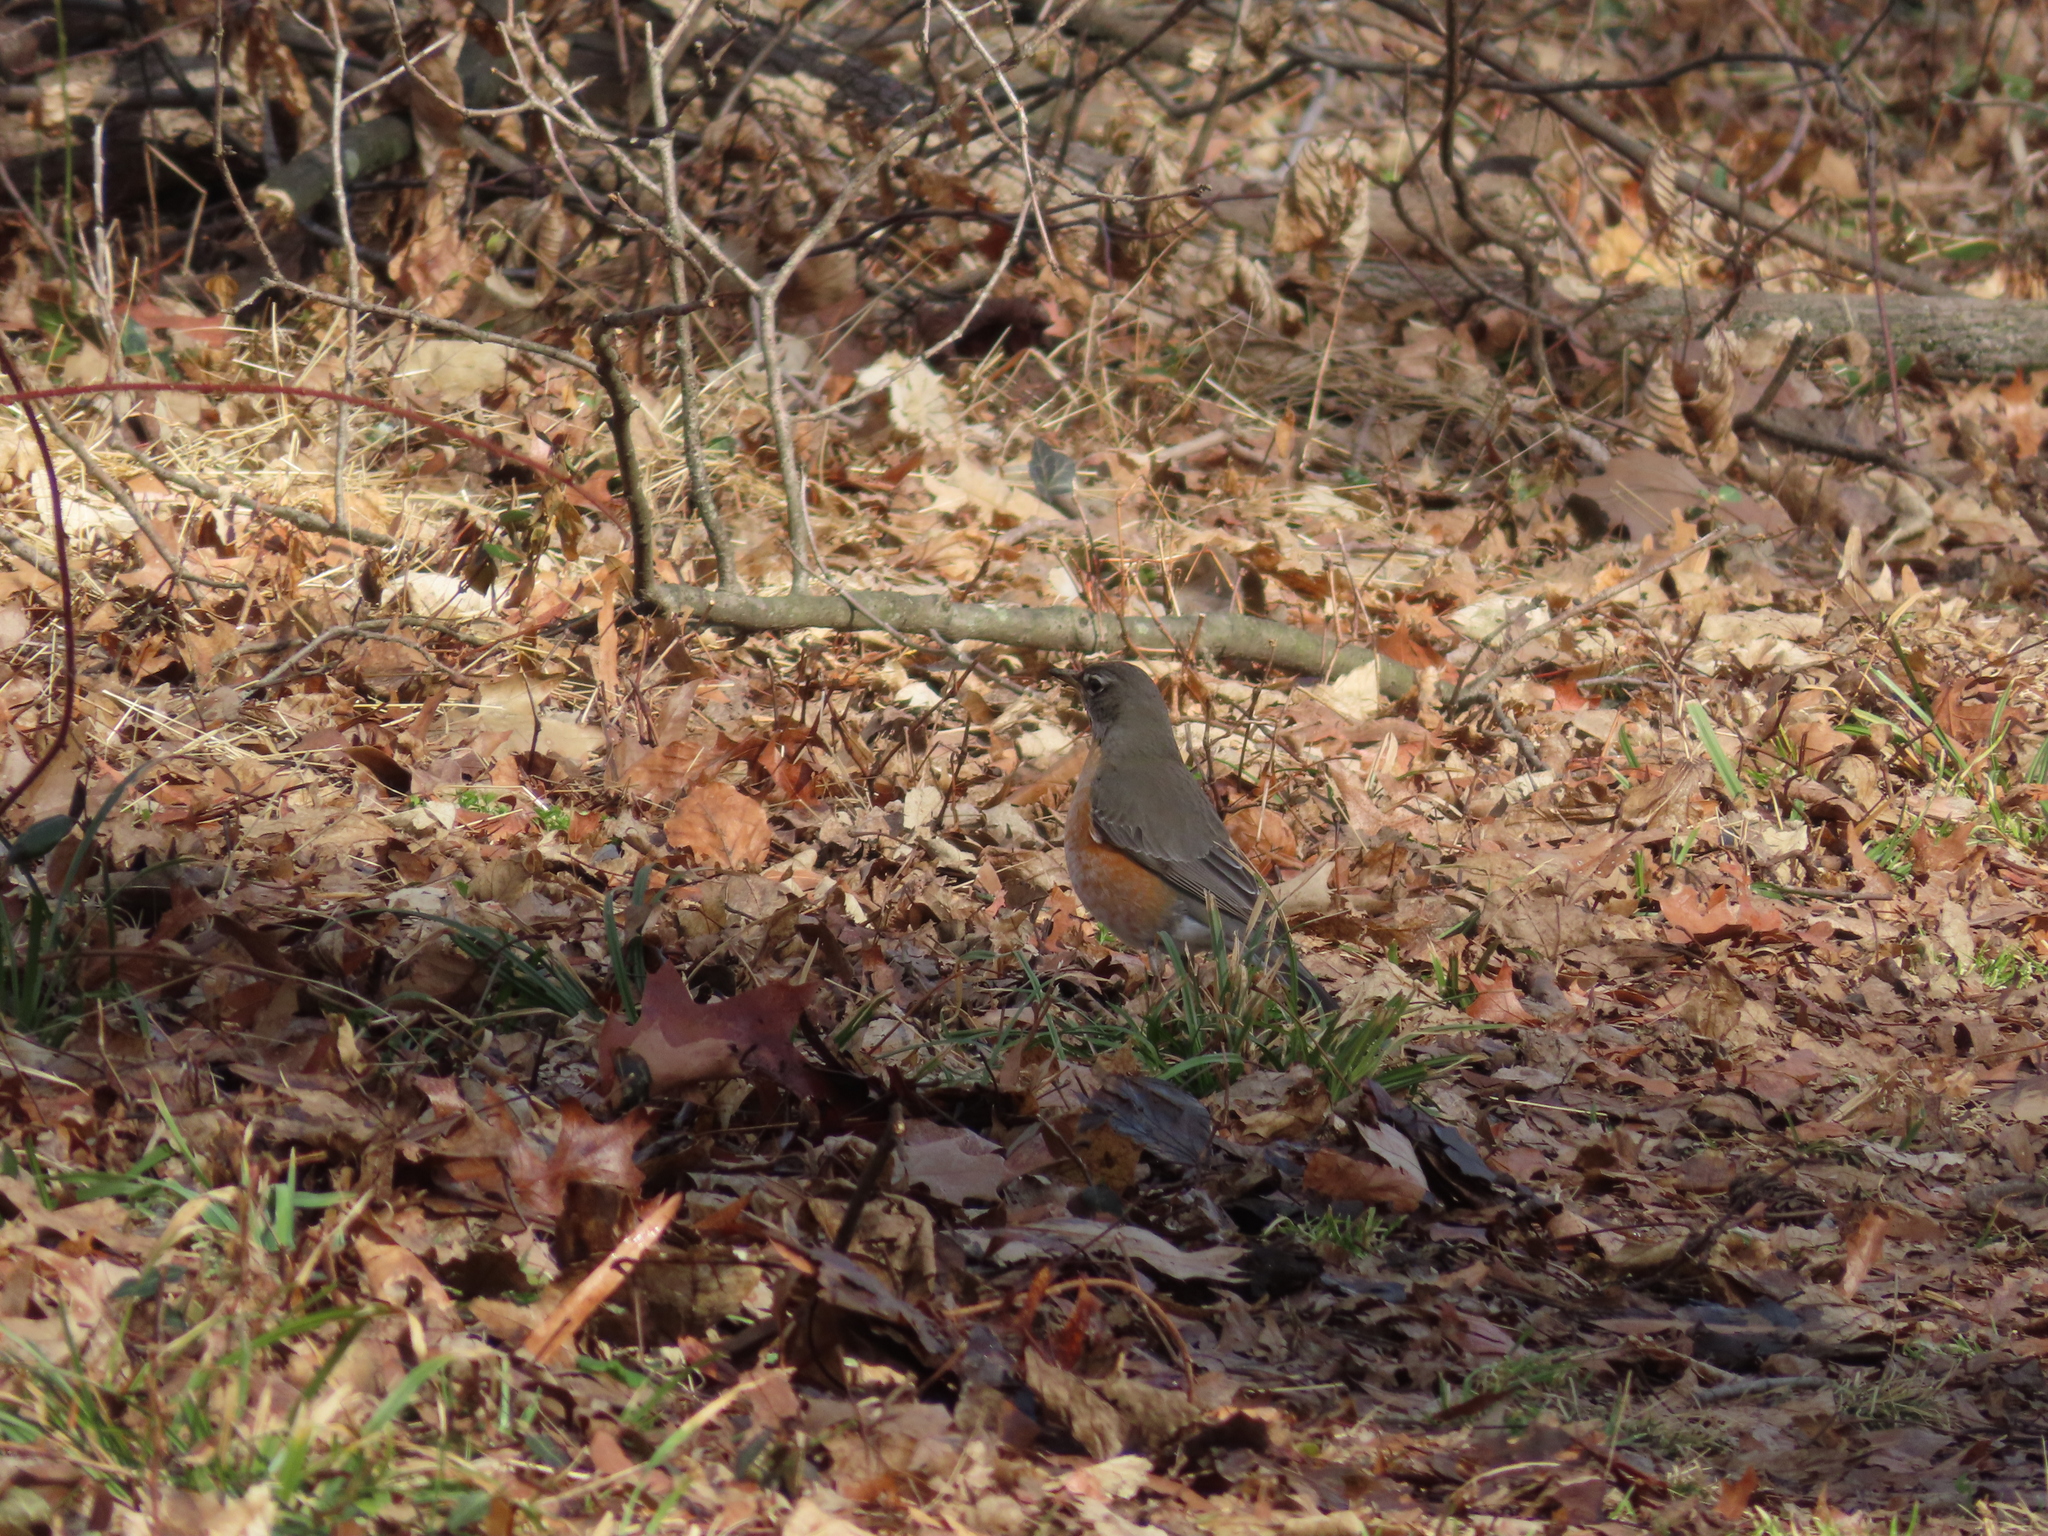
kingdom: Animalia
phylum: Chordata
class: Aves
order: Passeriformes
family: Turdidae
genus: Turdus
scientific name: Turdus migratorius
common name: American robin
